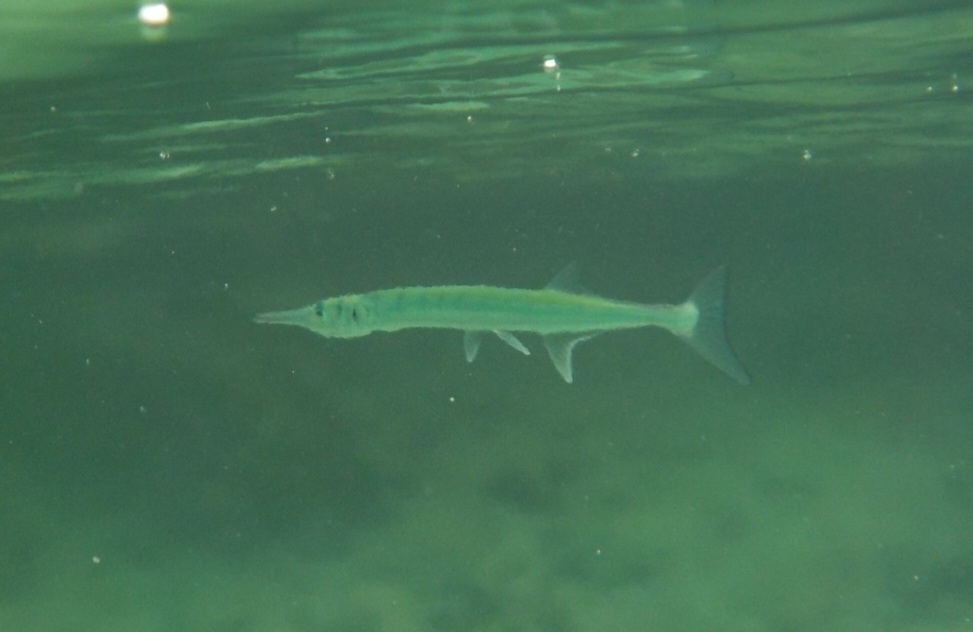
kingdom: Animalia
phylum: Chordata
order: Beloniformes
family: Belonidae
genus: Tylosurus
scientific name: Tylosurus crocodilus
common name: Houndfish
